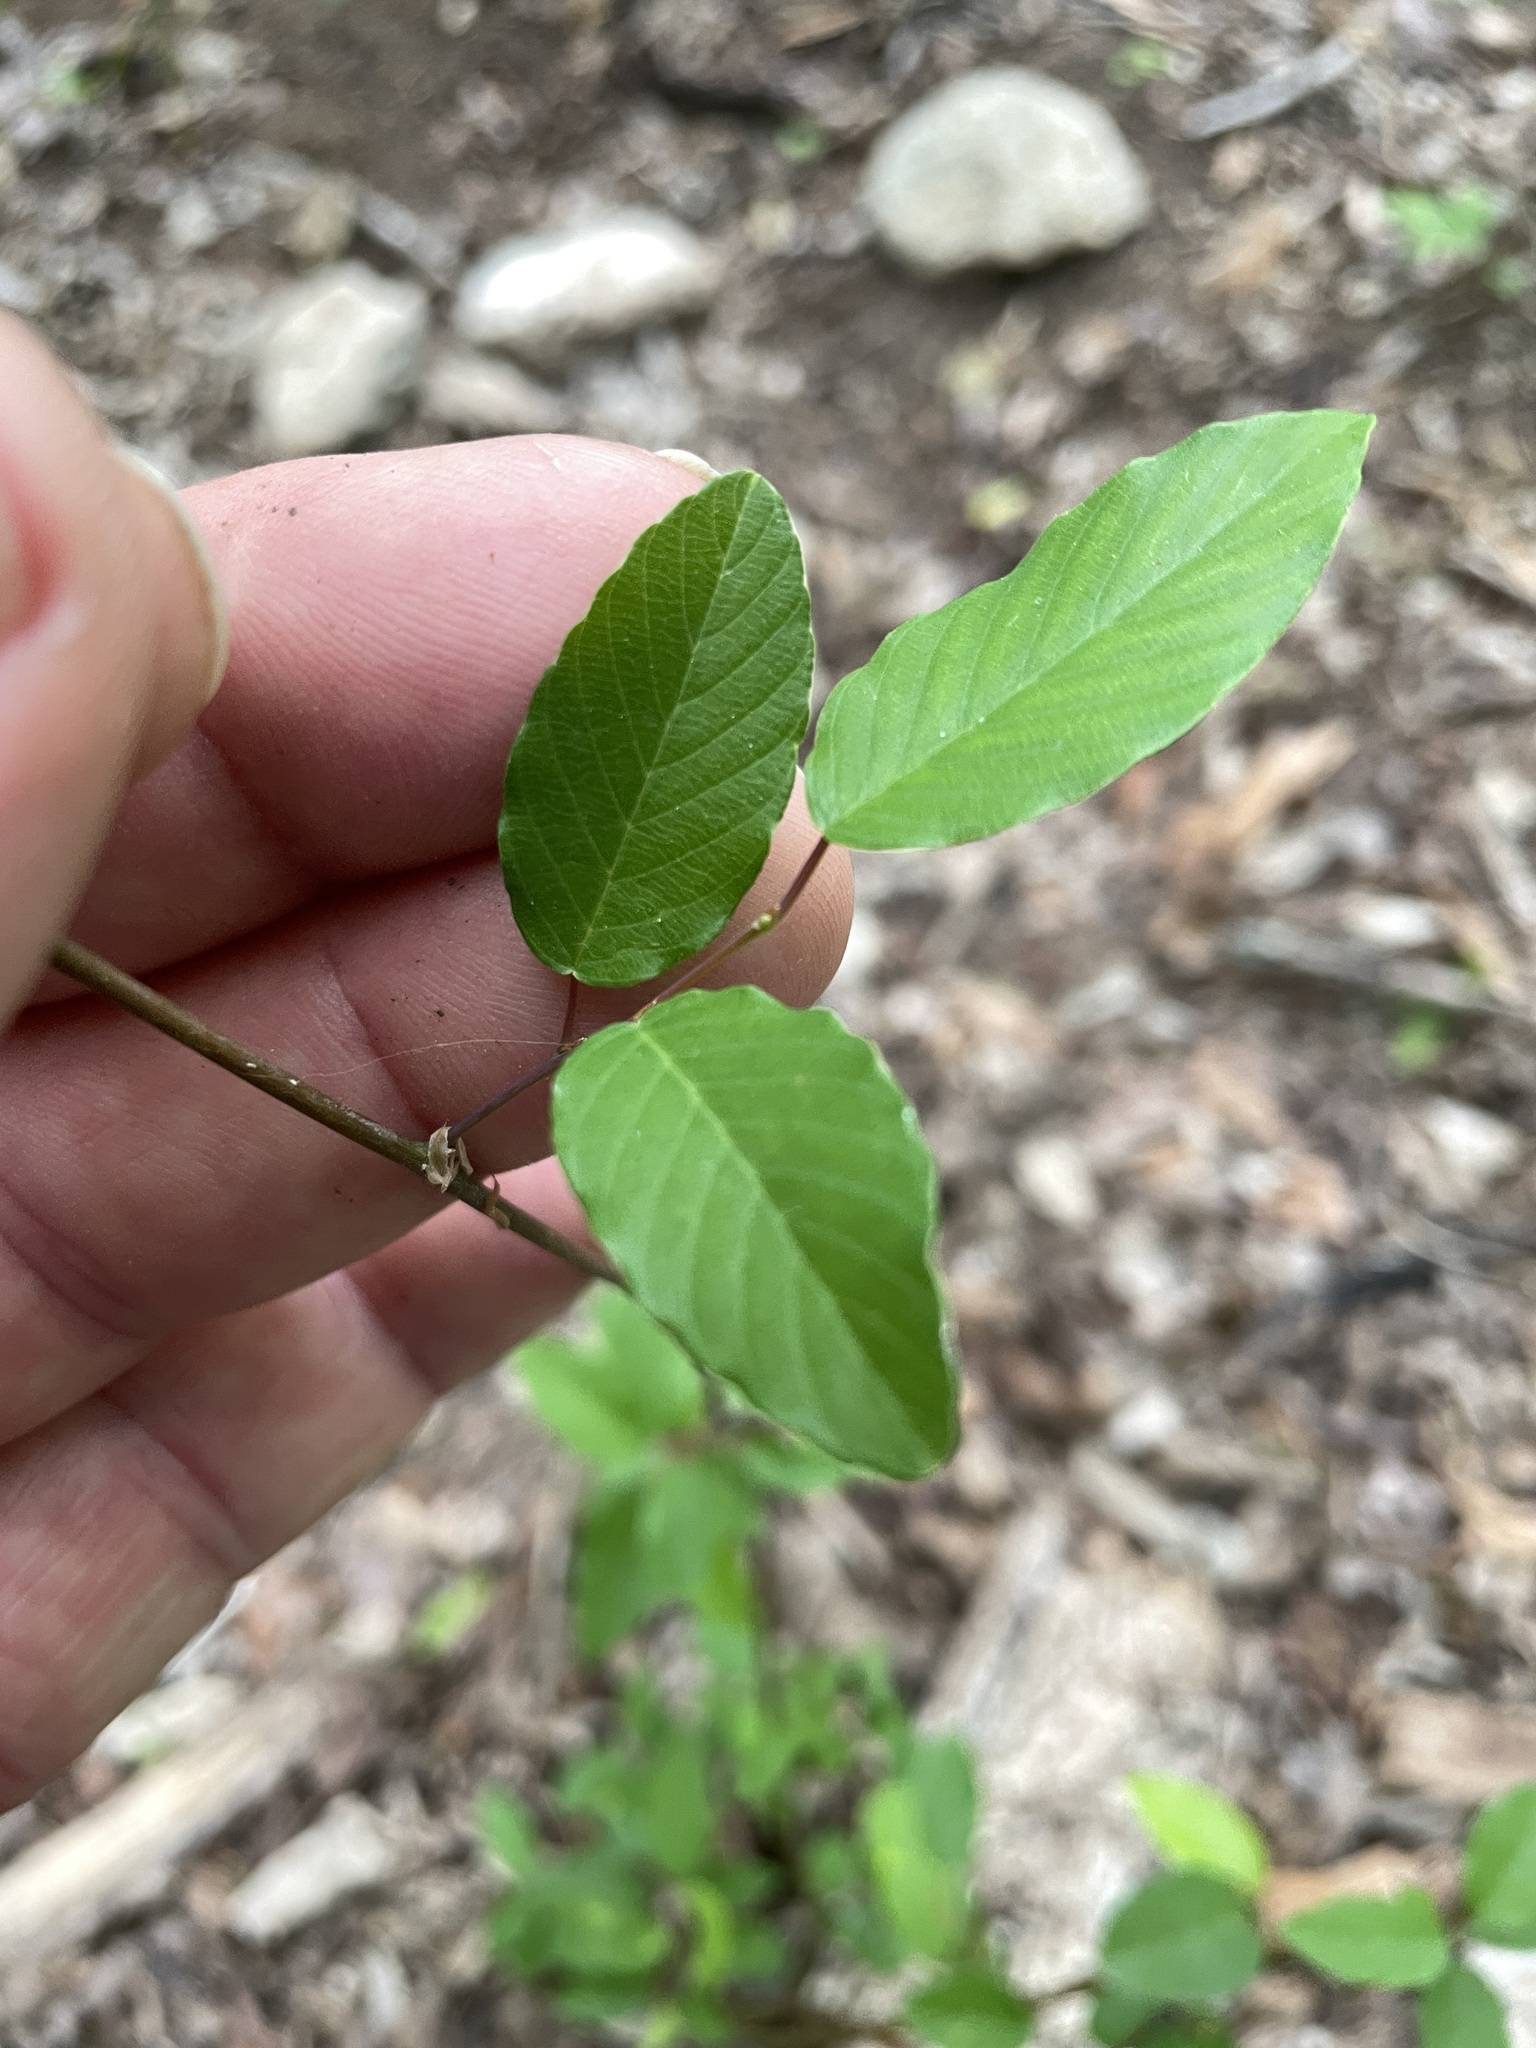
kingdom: Plantae
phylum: Tracheophyta
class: Magnoliopsida
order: Rosales
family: Rhamnaceae
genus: Berchemia
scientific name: Berchemia scandens
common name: Supplejack
